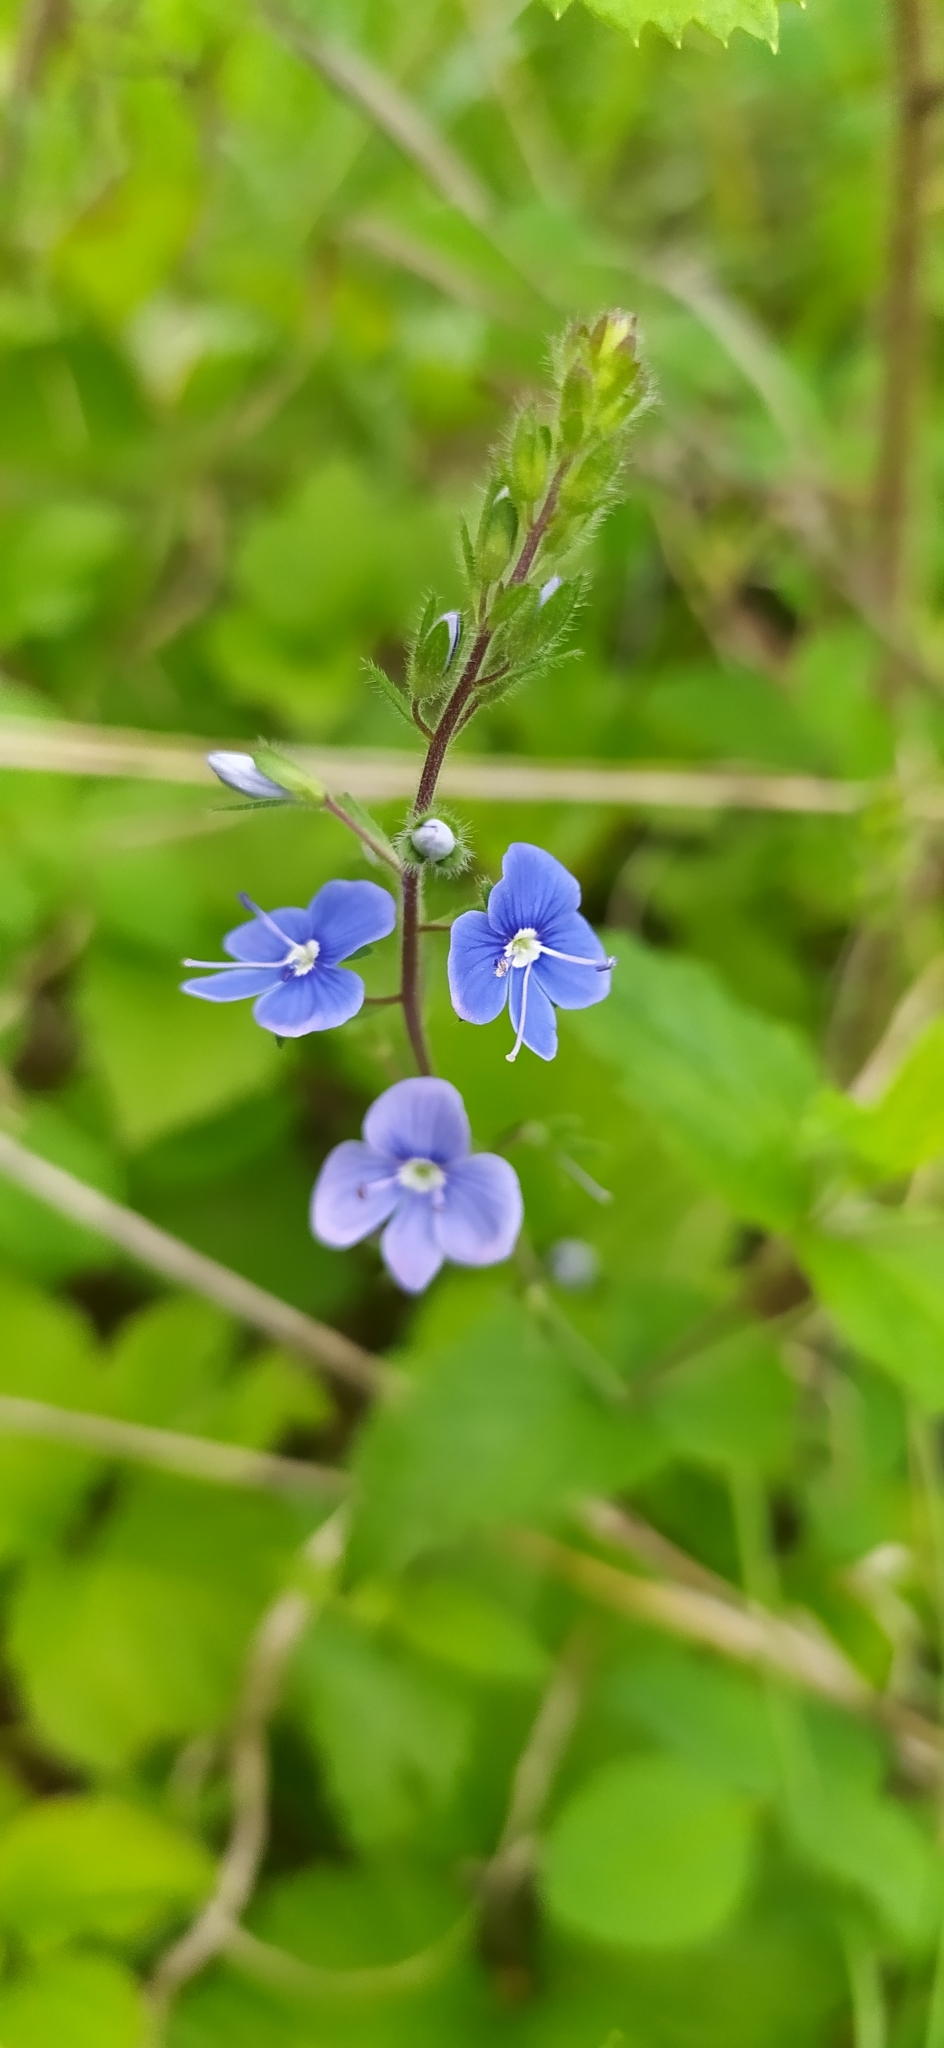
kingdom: Plantae
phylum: Tracheophyta
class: Magnoliopsida
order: Lamiales
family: Plantaginaceae
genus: Veronica
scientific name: Veronica chamaedrys
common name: Germander speedwell
